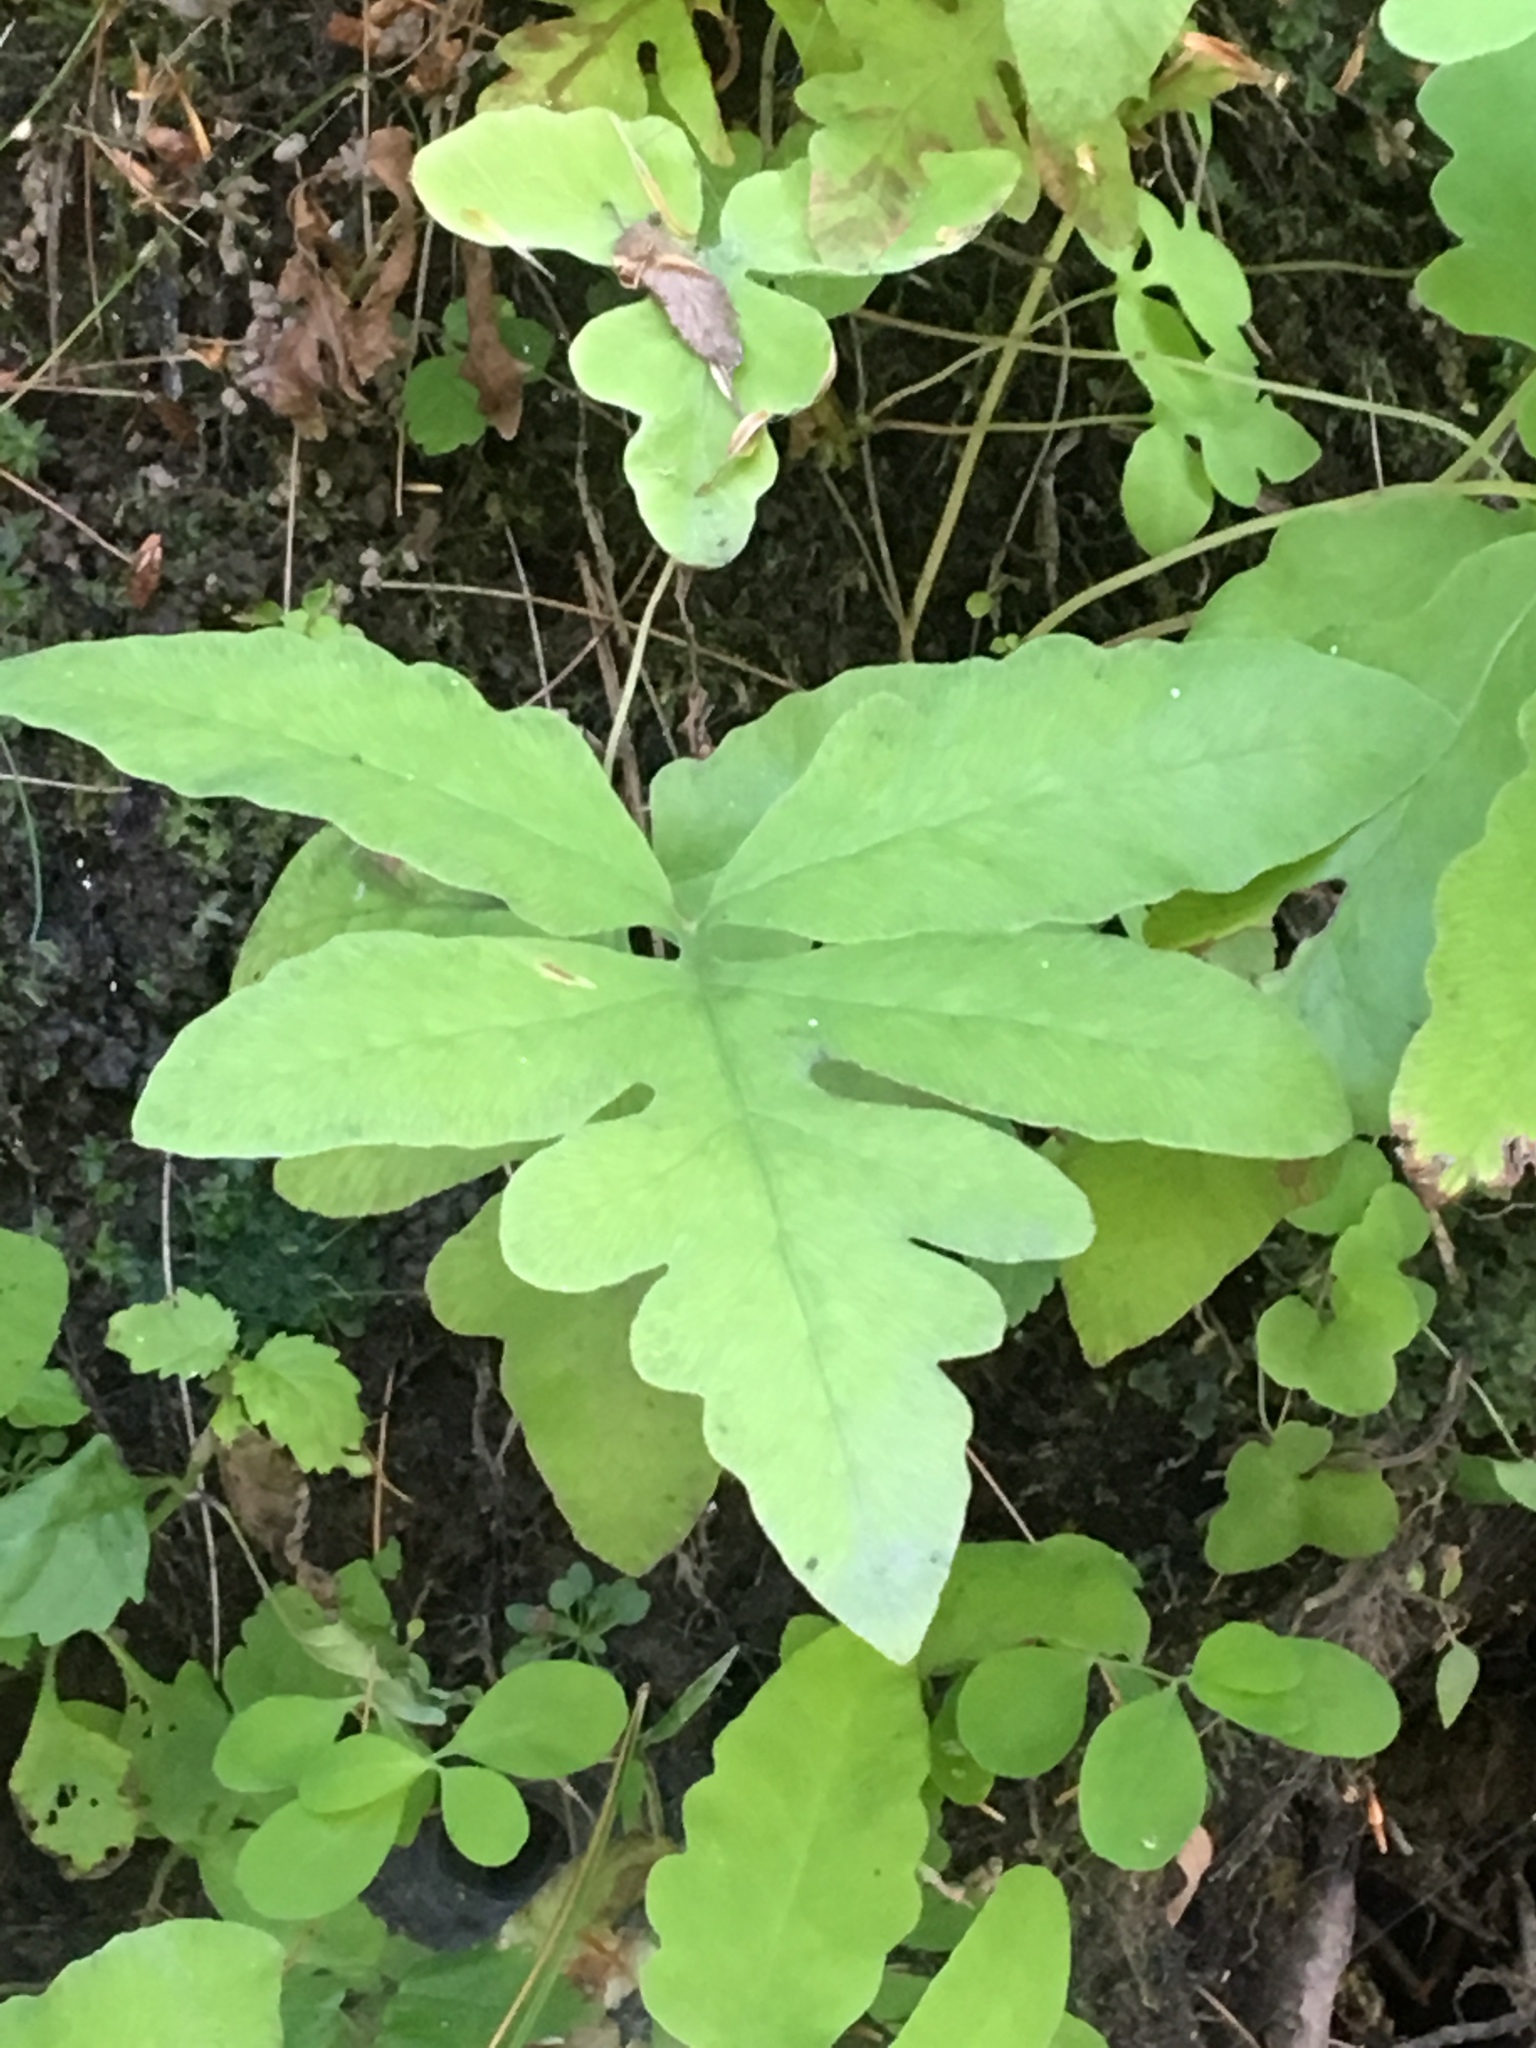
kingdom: Plantae
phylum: Tracheophyta
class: Polypodiopsida
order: Polypodiales
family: Onocleaceae
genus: Onoclea
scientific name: Onoclea sensibilis
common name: Sensitive fern
